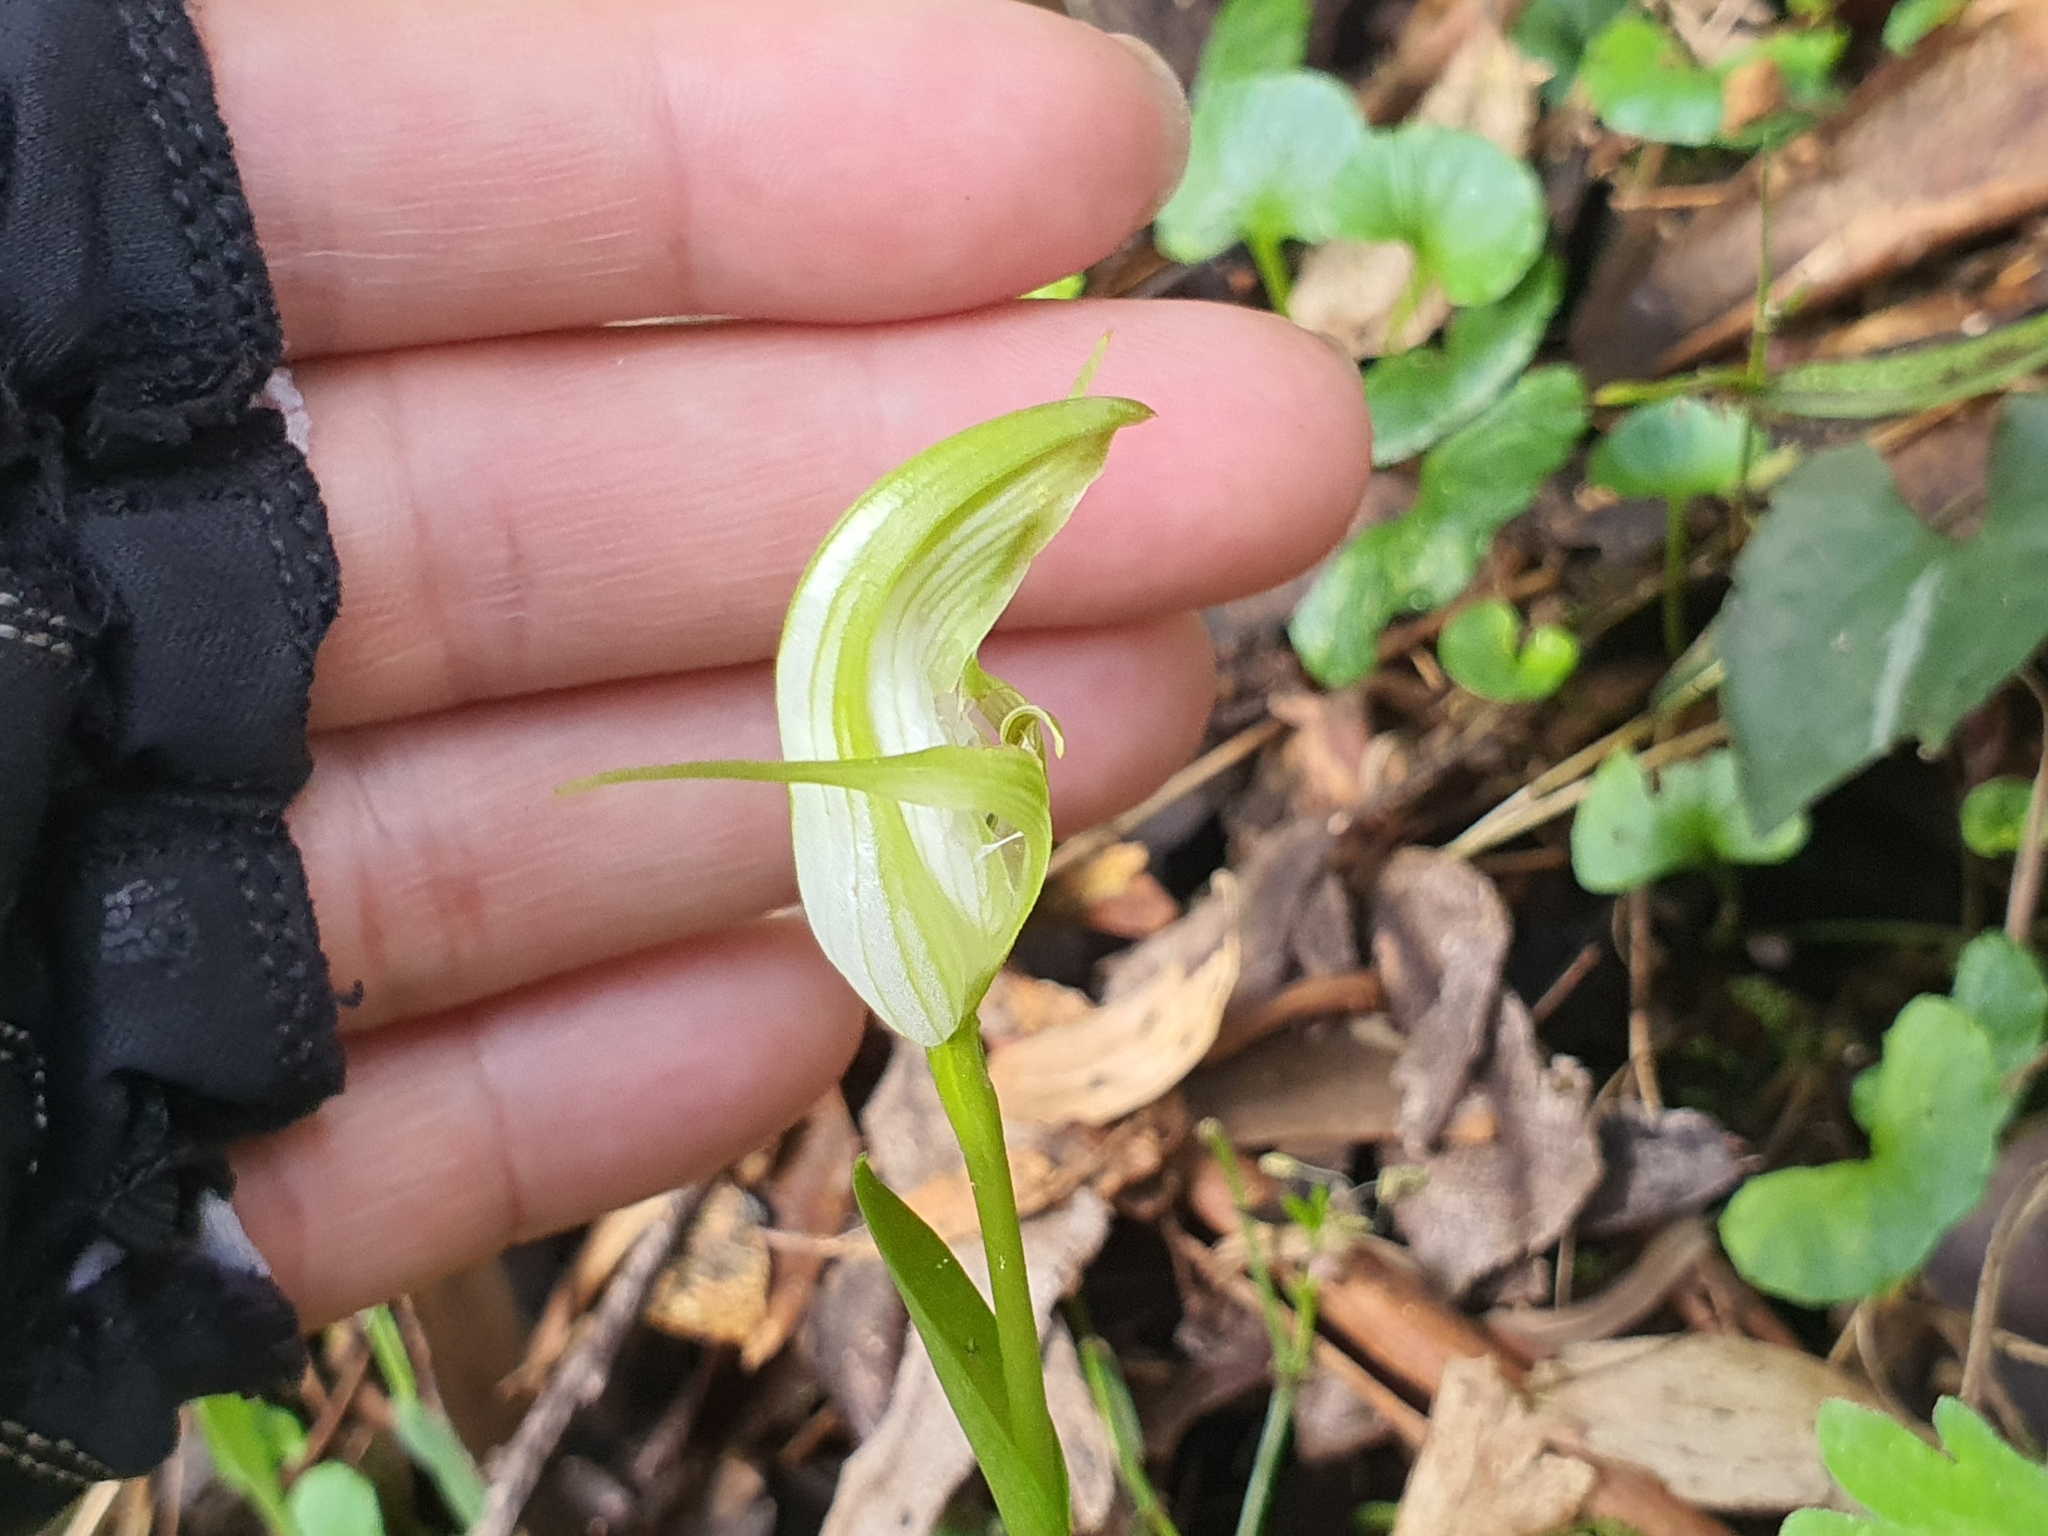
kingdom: Plantae
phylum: Tracheophyta
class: Liliopsida
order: Asparagales
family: Orchidaceae
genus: Pterostylis
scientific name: Pterostylis alpina
